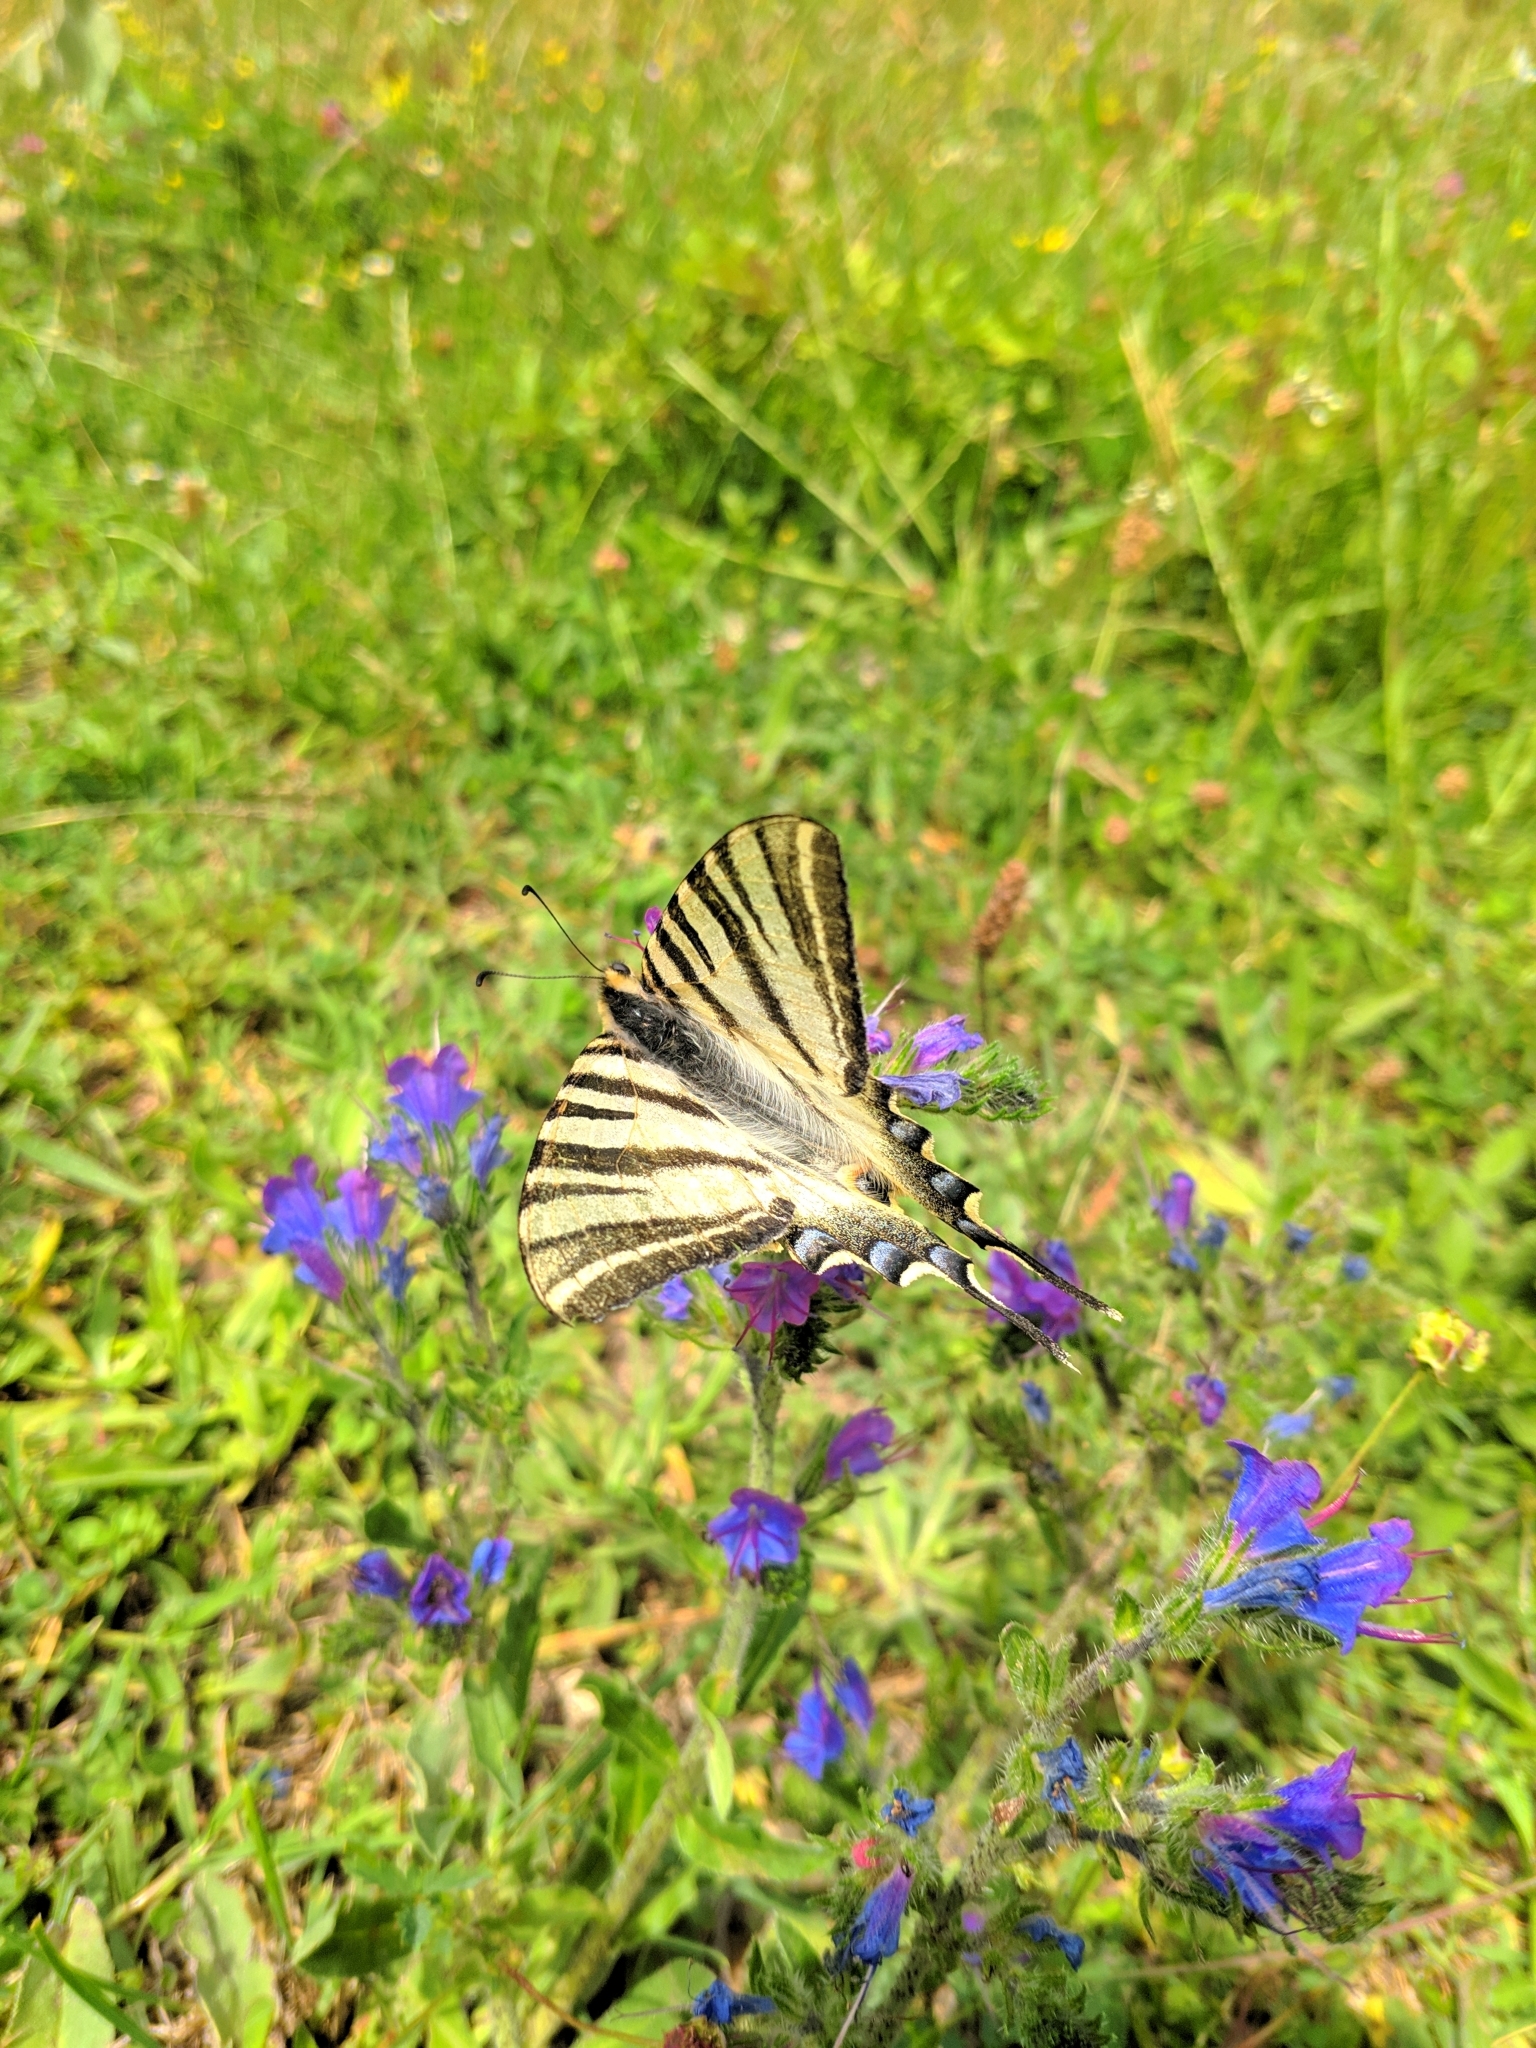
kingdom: Animalia
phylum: Arthropoda
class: Insecta
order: Lepidoptera
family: Papilionidae
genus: Iphiclides
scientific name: Iphiclides feisthamelii
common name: Iberian scarce swallowtail
